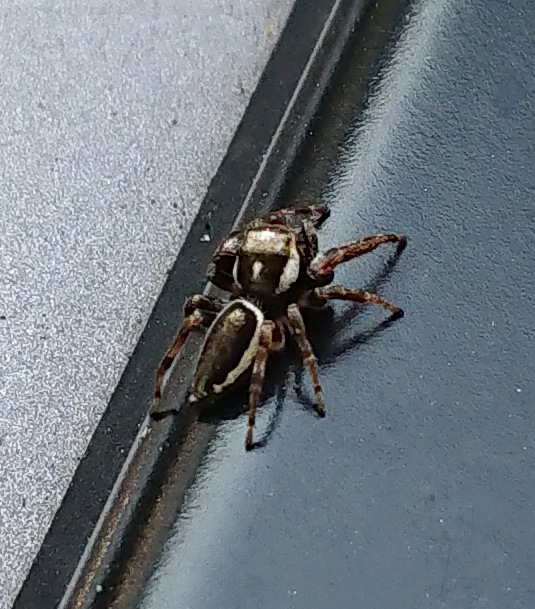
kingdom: Animalia
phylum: Arthropoda
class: Arachnida
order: Araneae
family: Salticidae
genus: Eris
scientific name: Eris militaris
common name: Bronze jumper
